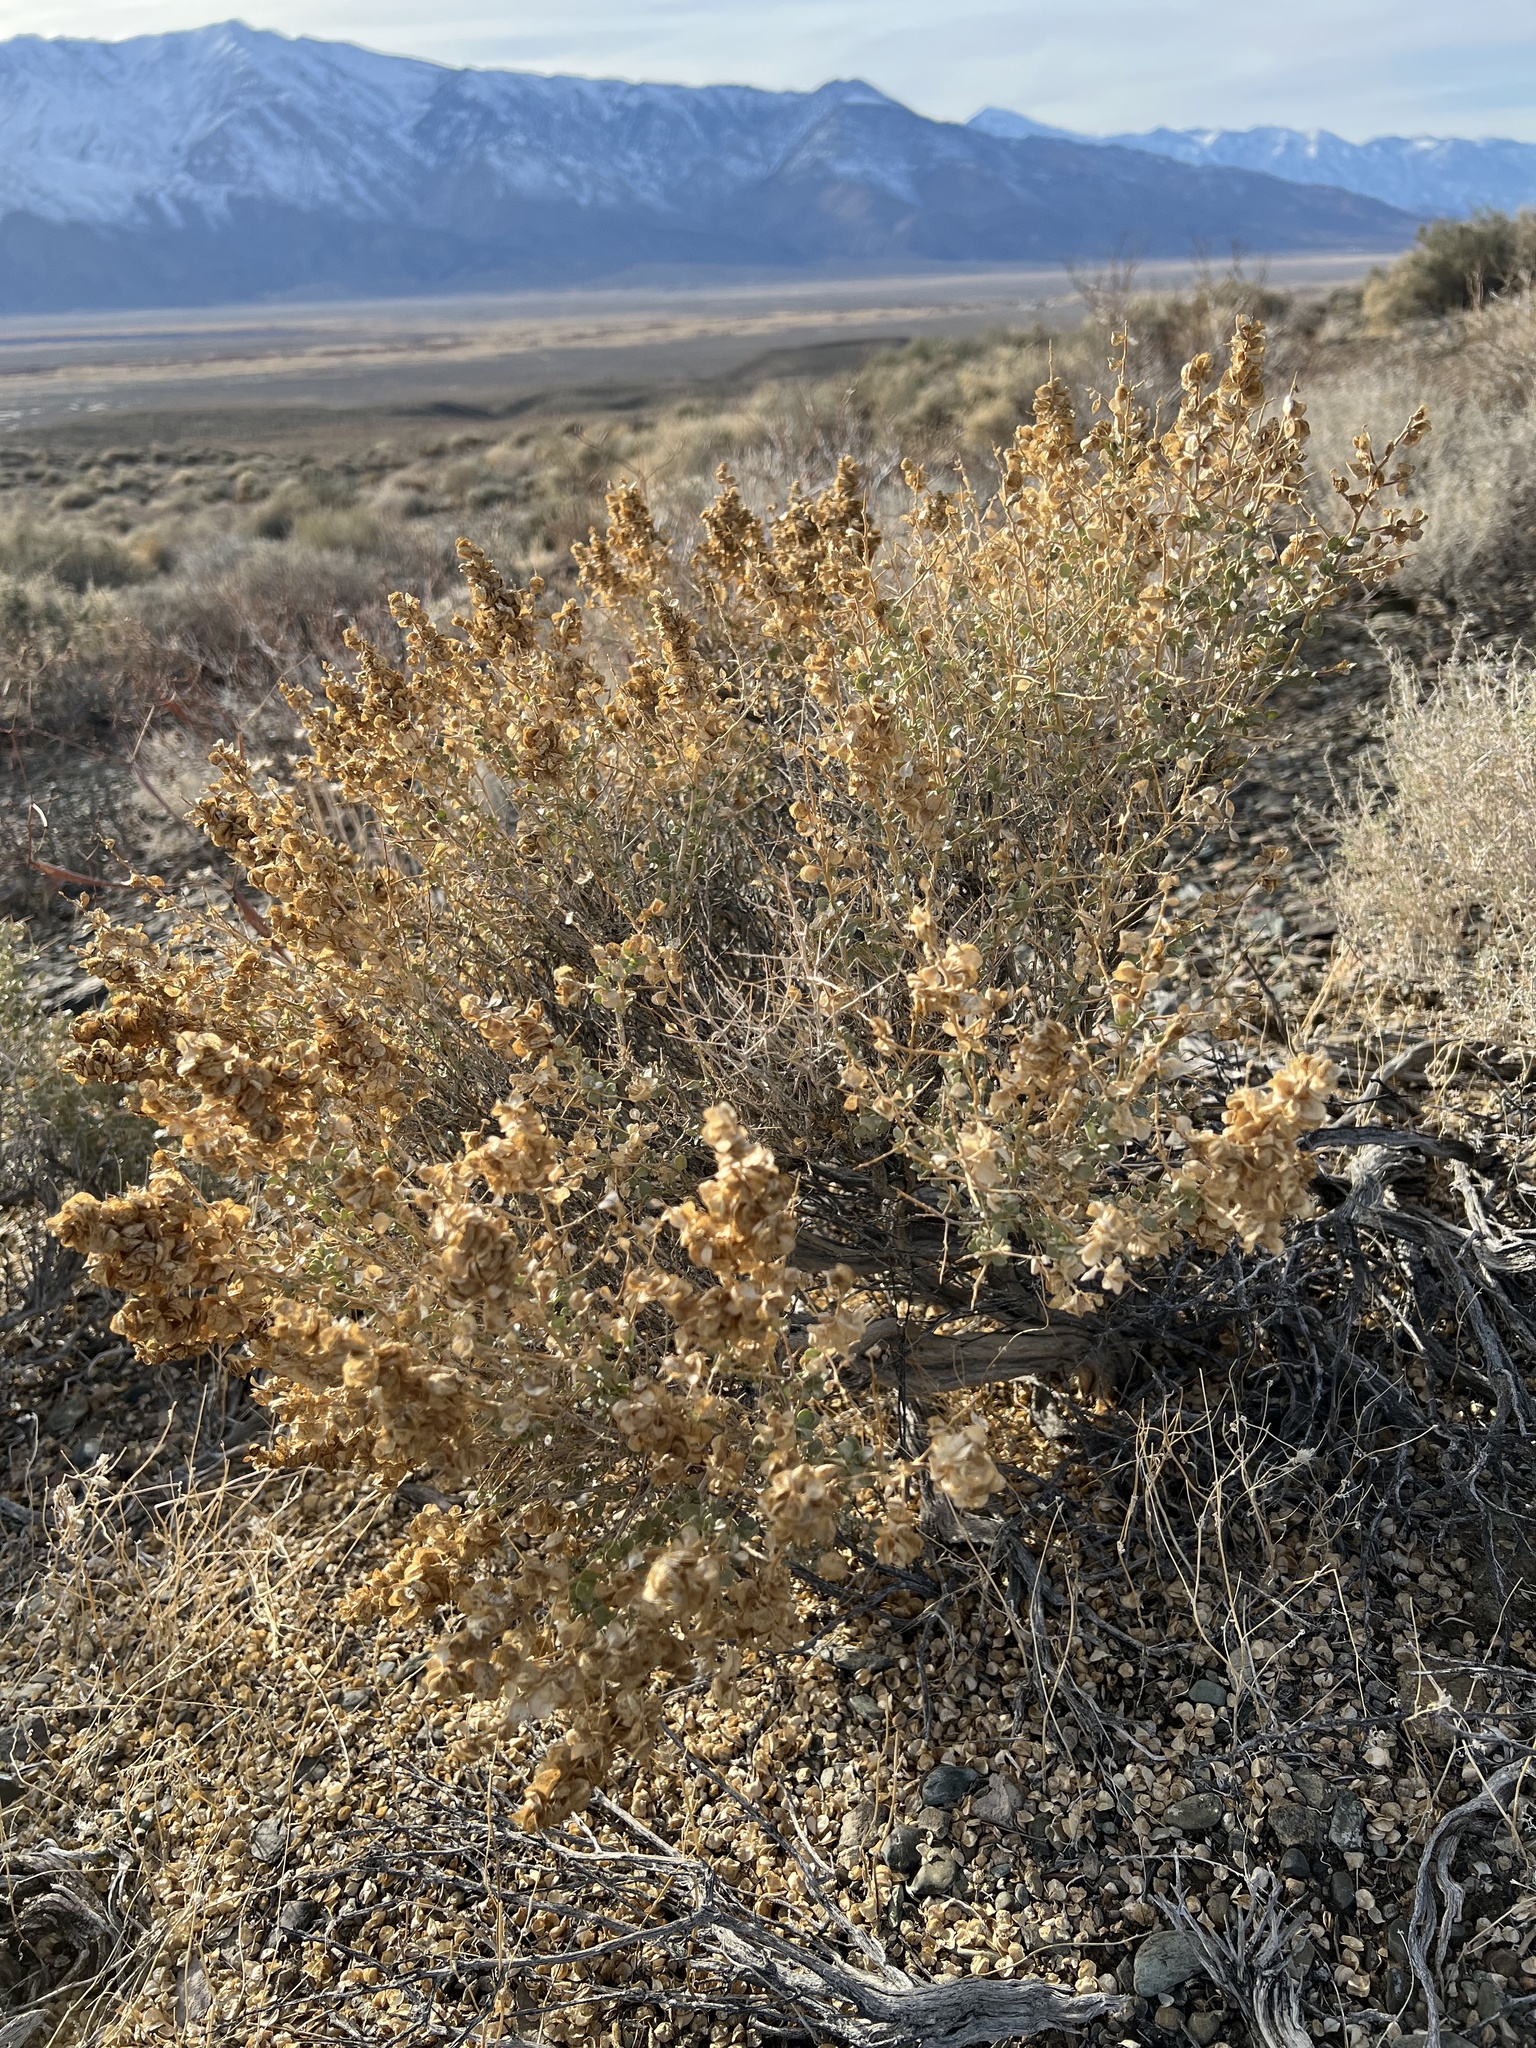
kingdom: Plantae
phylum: Tracheophyta
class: Magnoliopsida
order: Caryophyllales
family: Amaranthaceae
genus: Atriplex
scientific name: Atriplex confertifolia
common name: Shadscale
